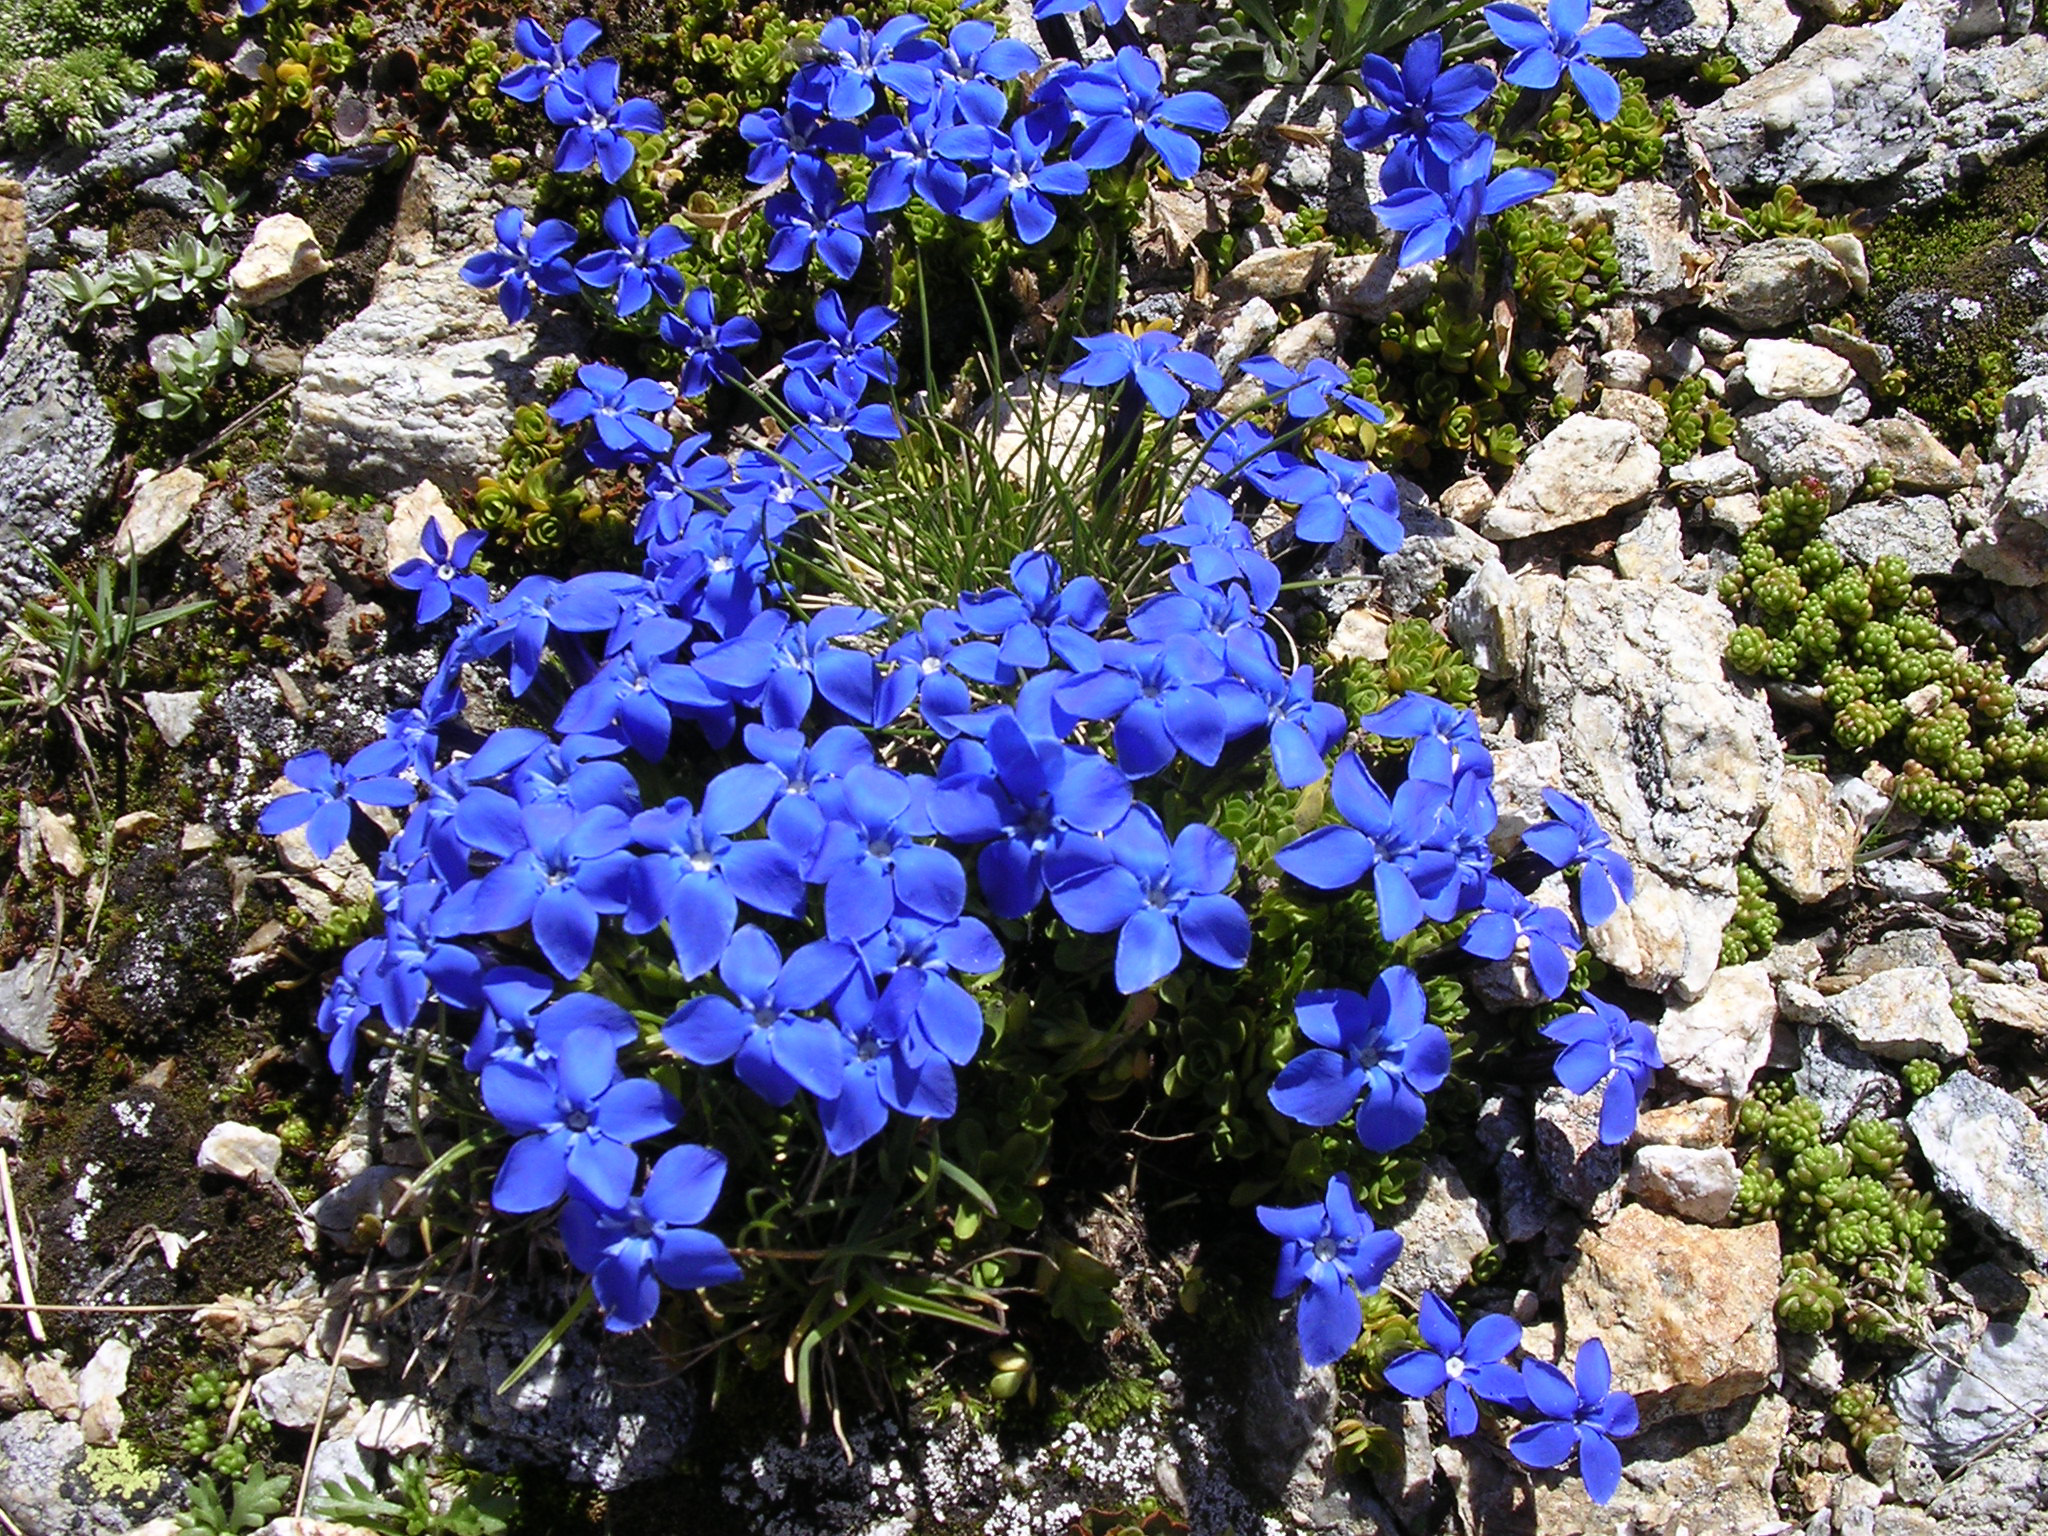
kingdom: Plantae
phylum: Tracheophyta
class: Magnoliopsida
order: Gentianales
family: Gentianaceae
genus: Gentiana
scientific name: Gentiana bavarica
